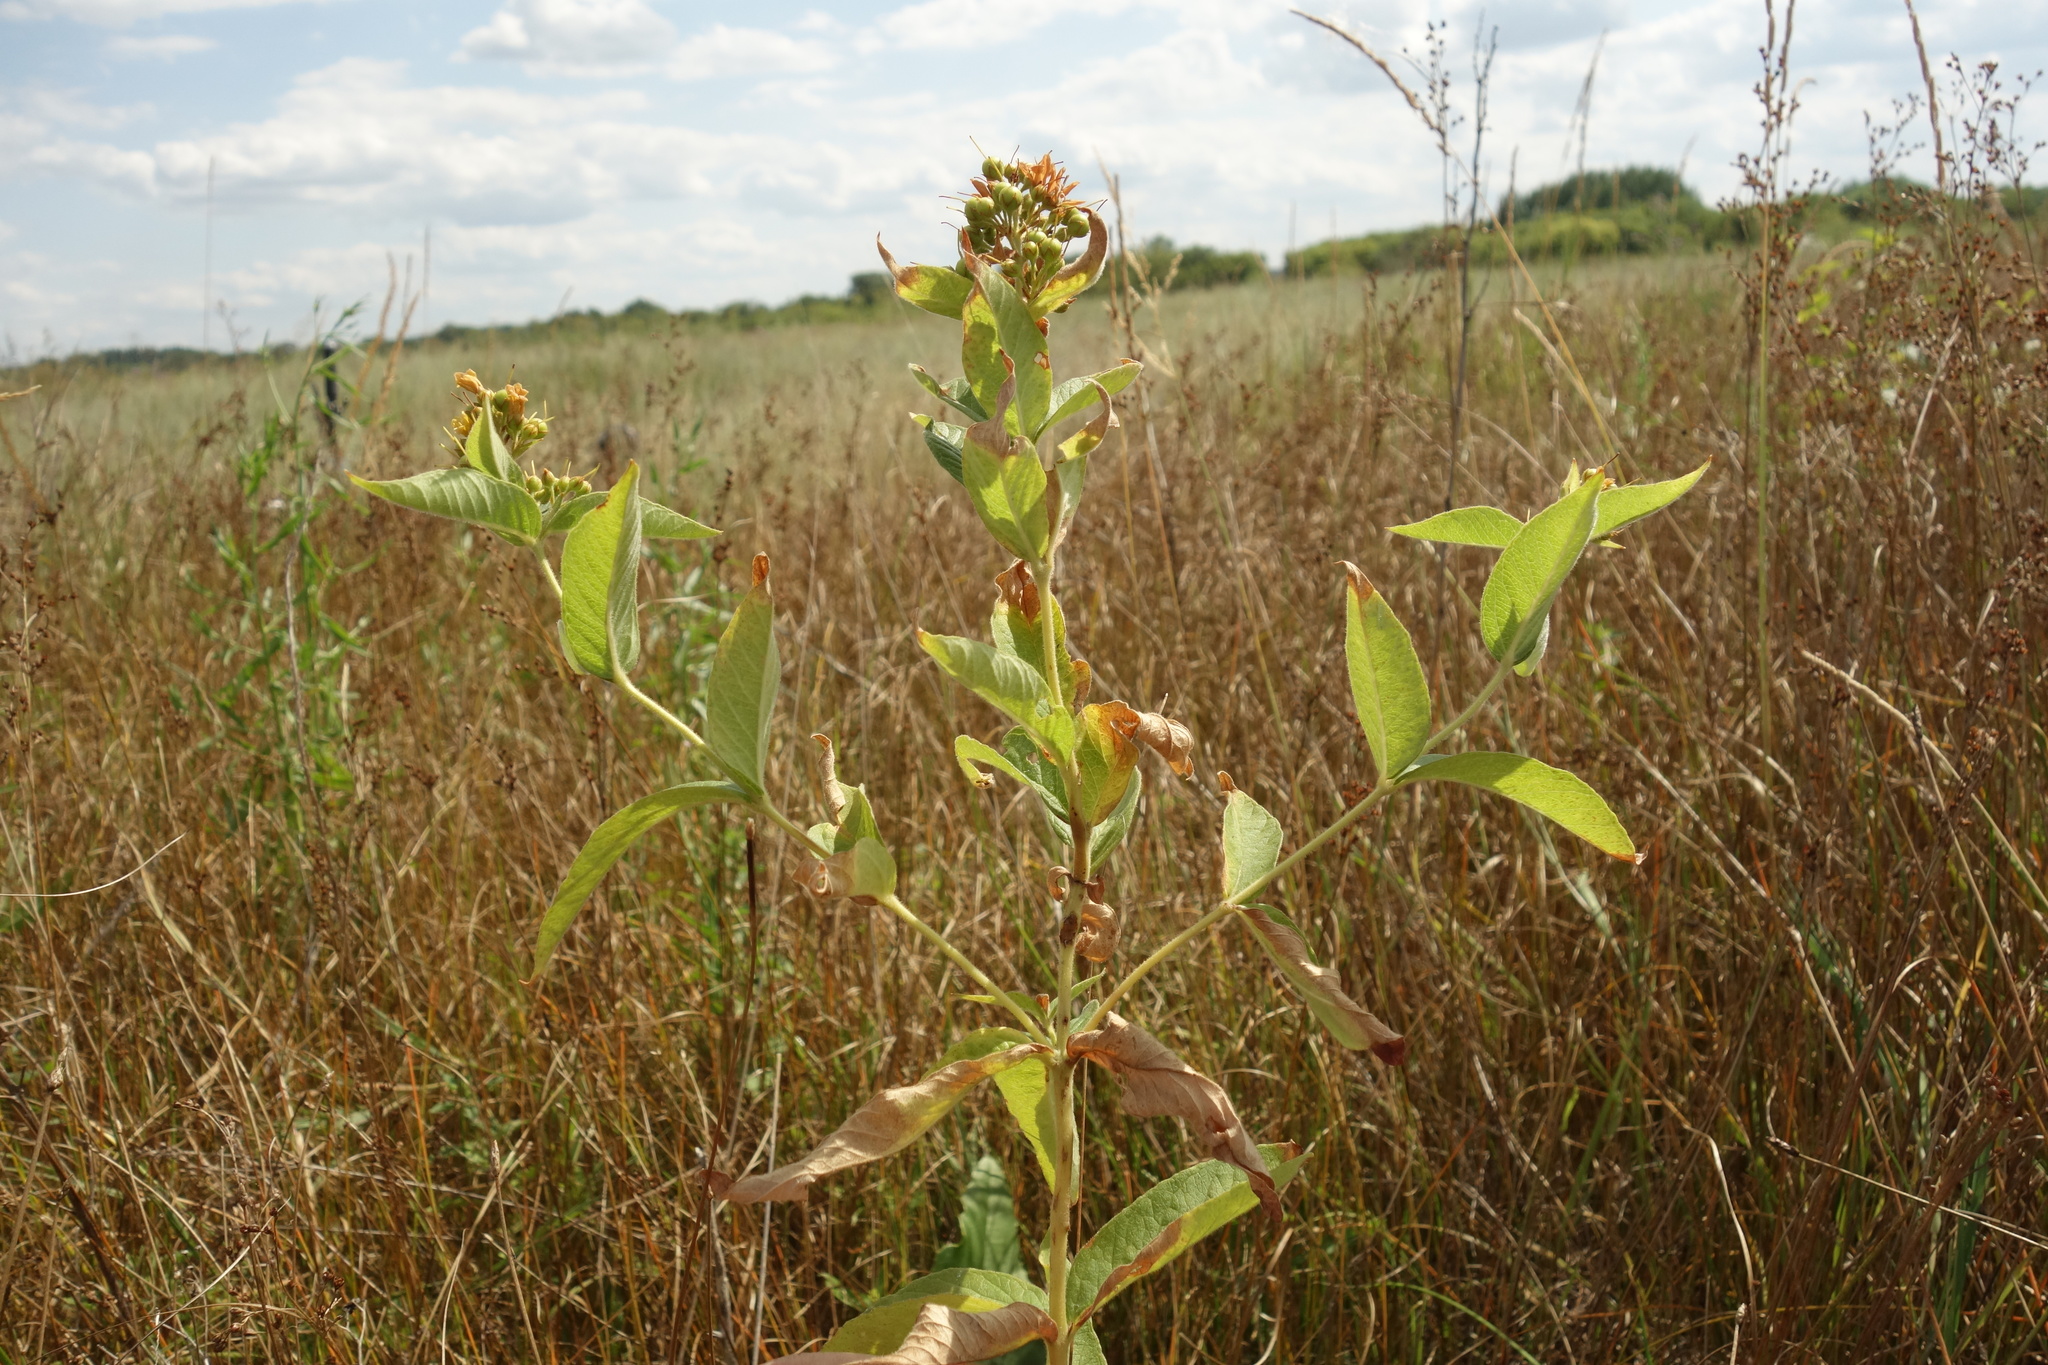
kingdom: Plantae
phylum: Tracheophyta
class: Magnoliopsida
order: Ericales
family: Primulaceae
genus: Lysimachia
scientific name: Lysimachia vulgaris
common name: Yellow loosestrife
